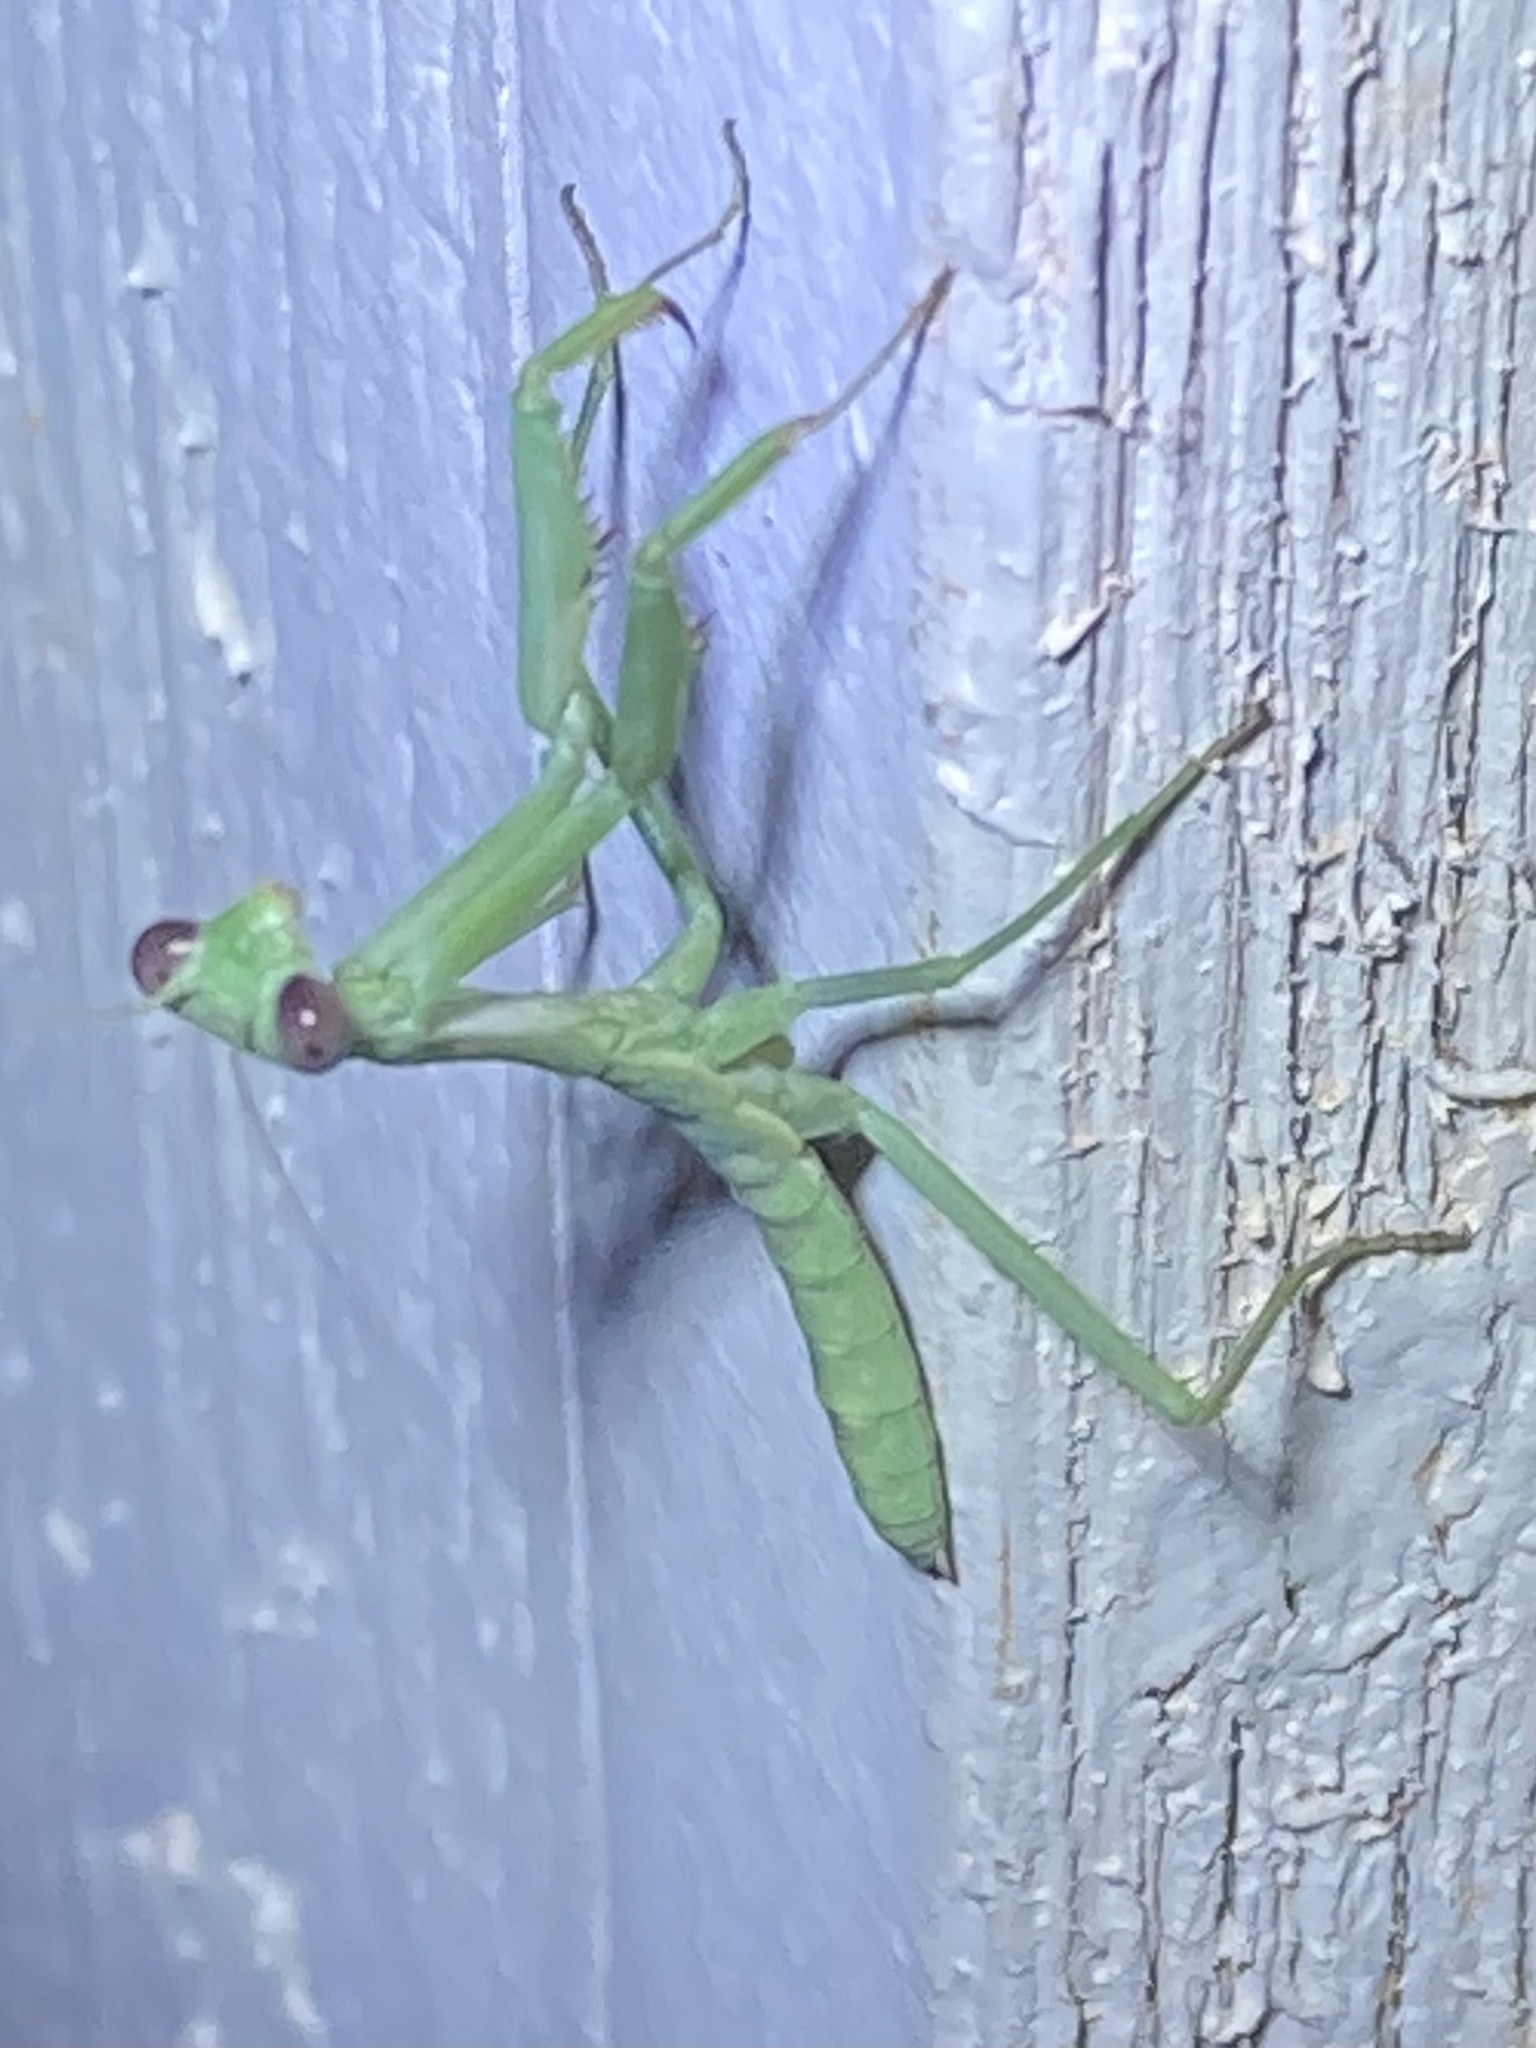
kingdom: Animalia
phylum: Arthropoda
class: Insecta
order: Mantodea
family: Mantidae
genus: Stagmomantis
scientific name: Stagmomantis carolina
